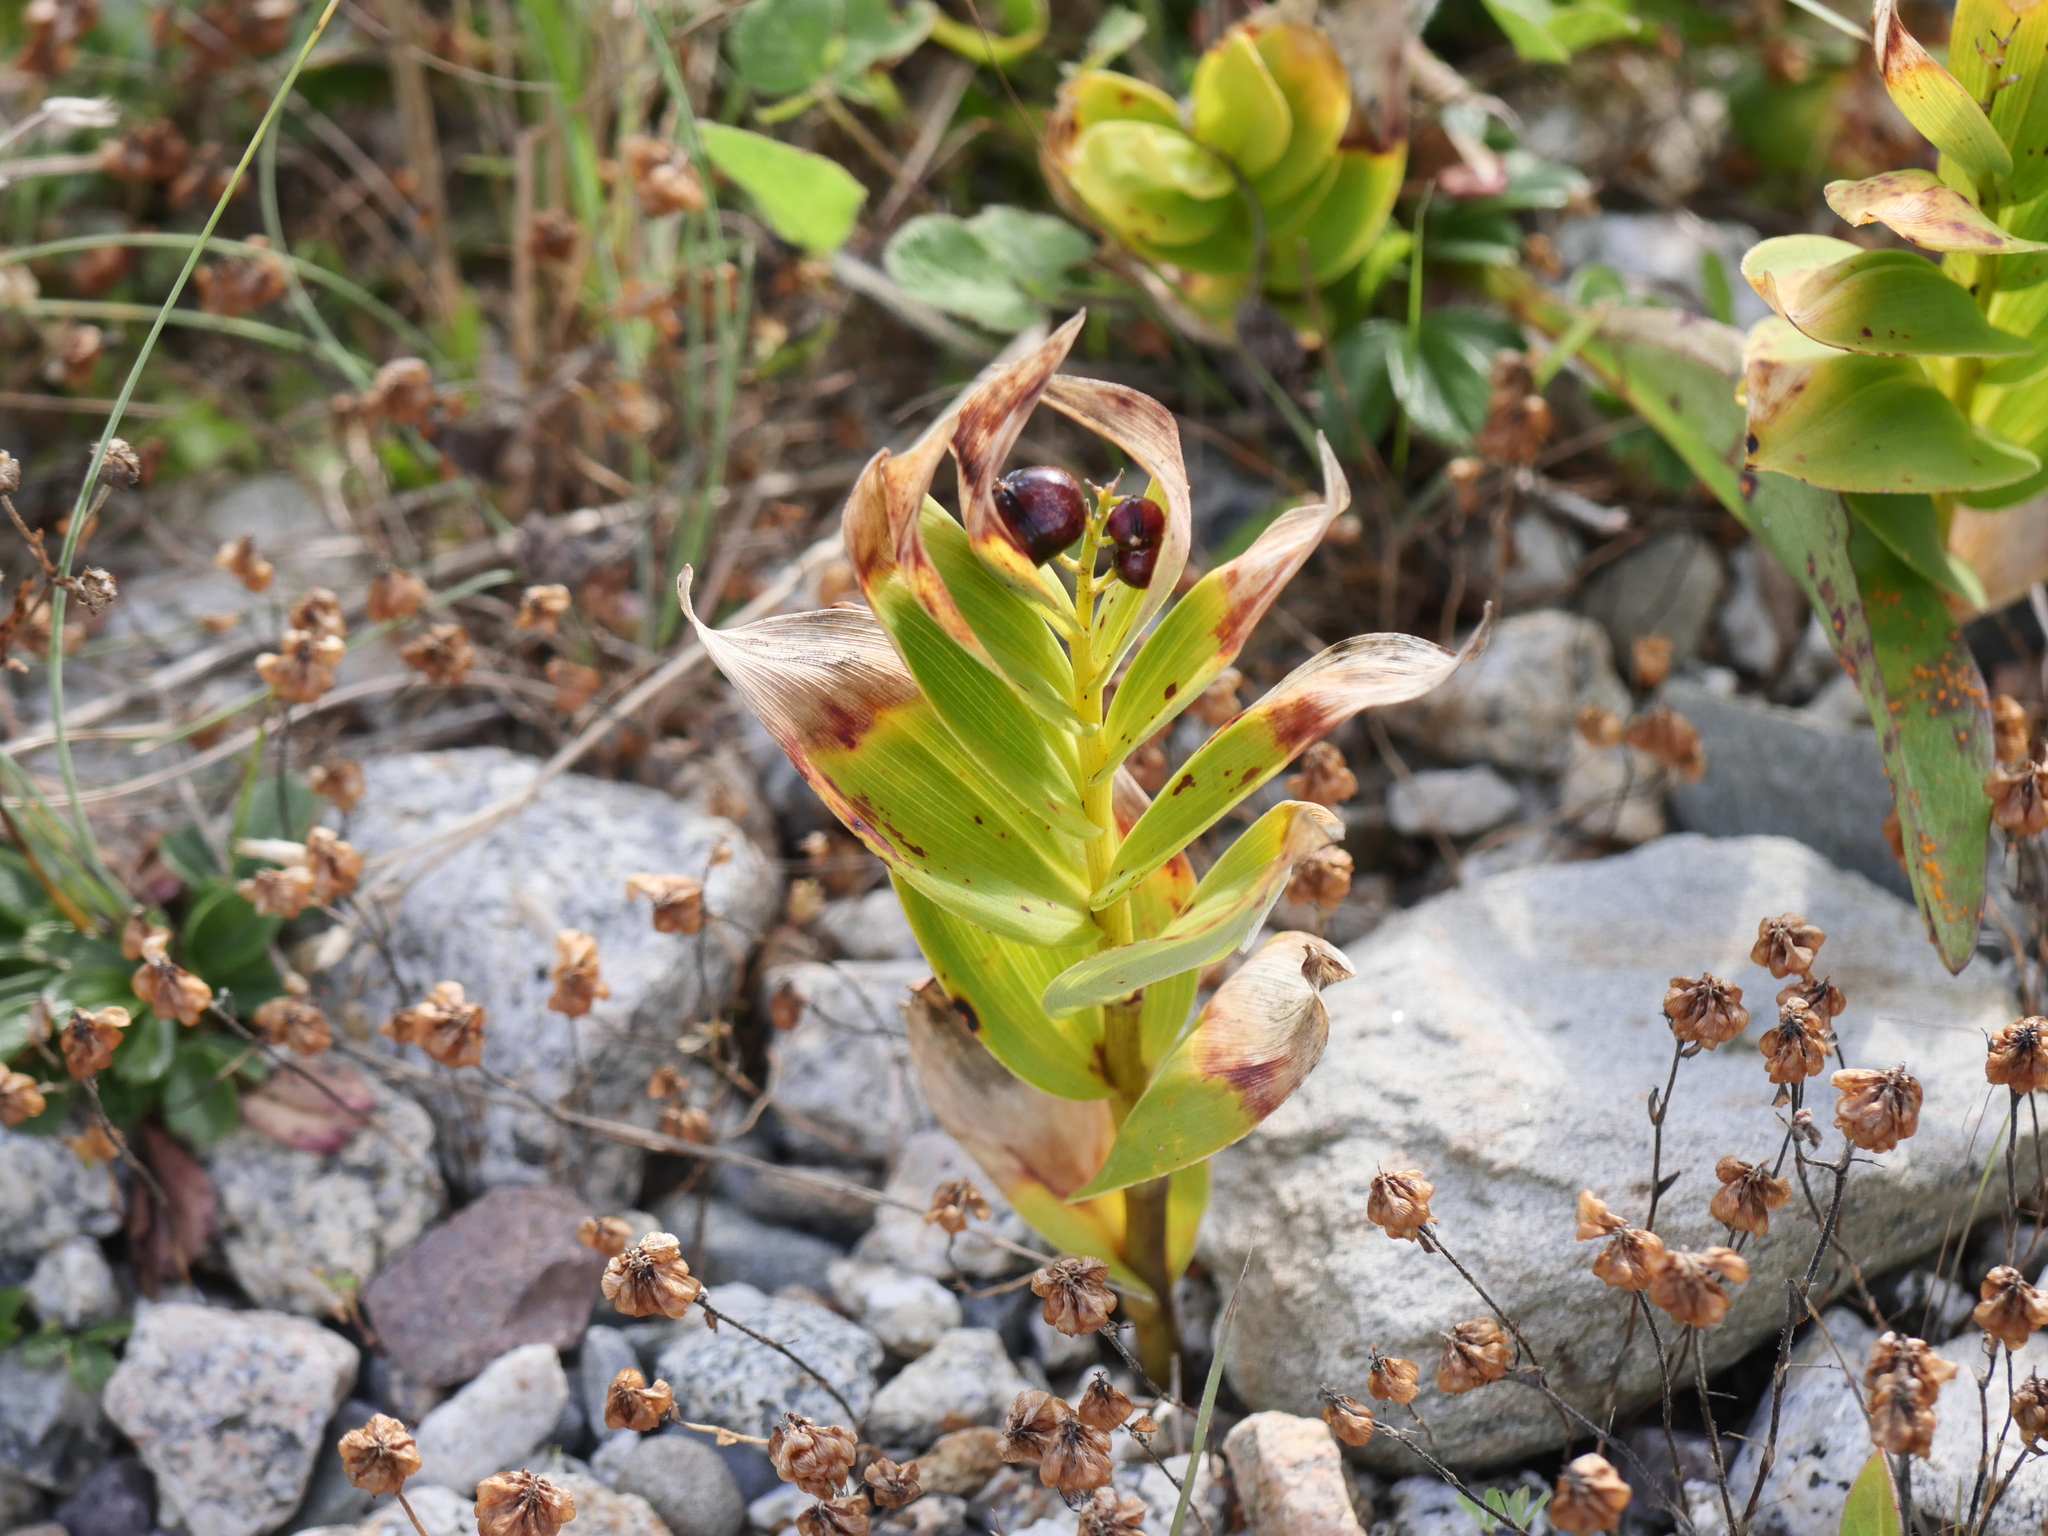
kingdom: Plantae
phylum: Tracheophyta
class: Liliopsida
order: Asparagales
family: Asparagaceae
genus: Maianthemum
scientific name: Maianthemum stellatum
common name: Little false solomon's seal
